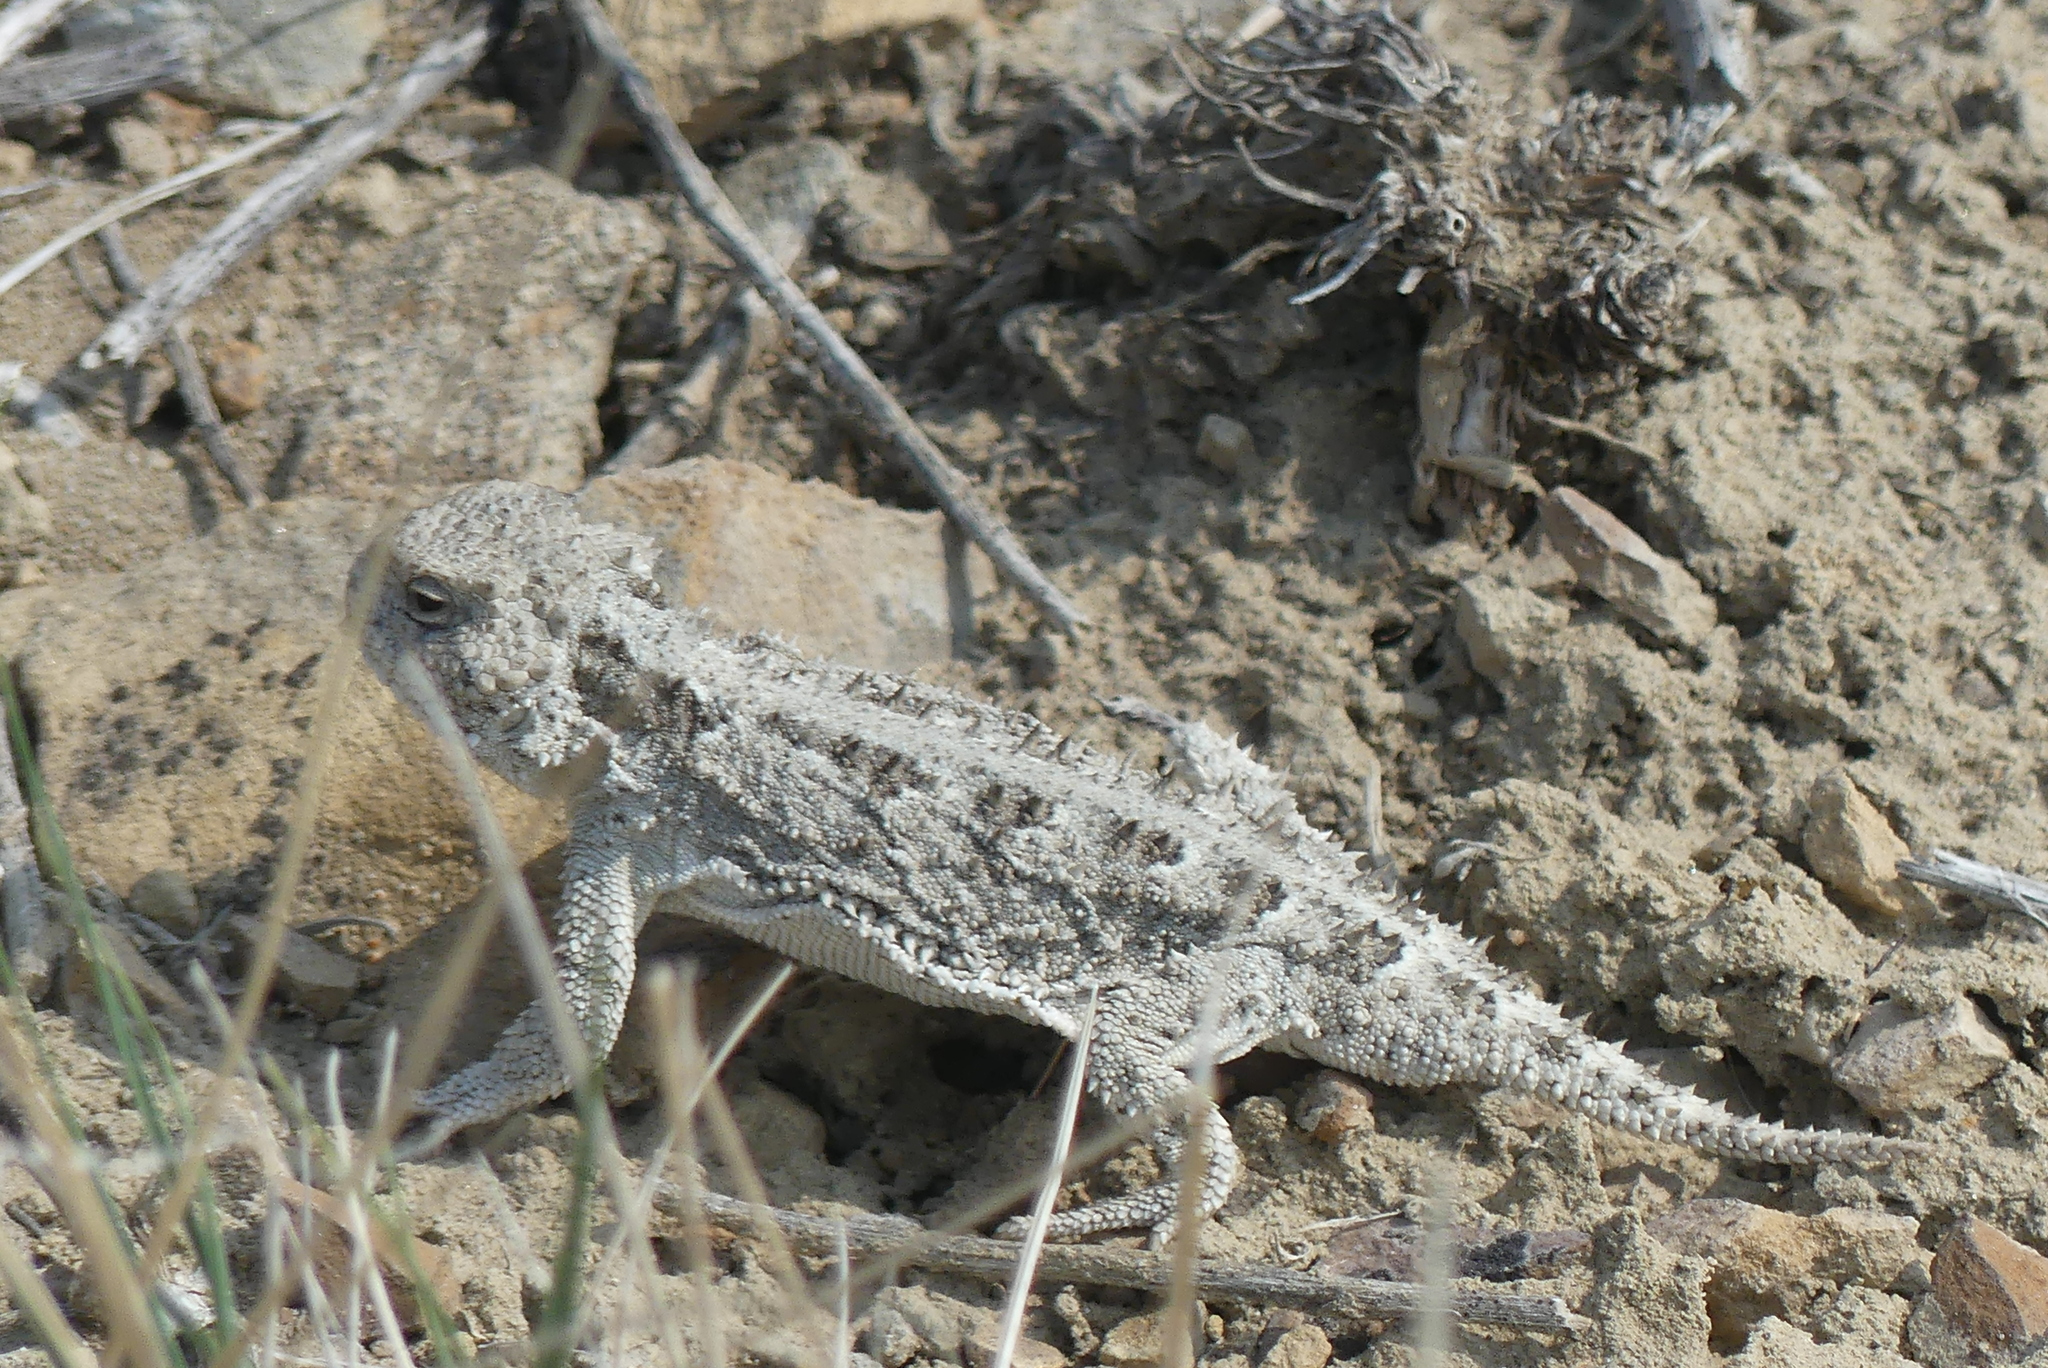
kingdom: Animalia
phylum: Chordata
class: Squamata
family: Phrynosomatidae
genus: Phrynosoma
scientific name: Phrynosoma hernandesi
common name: Greater short-horned lizard
